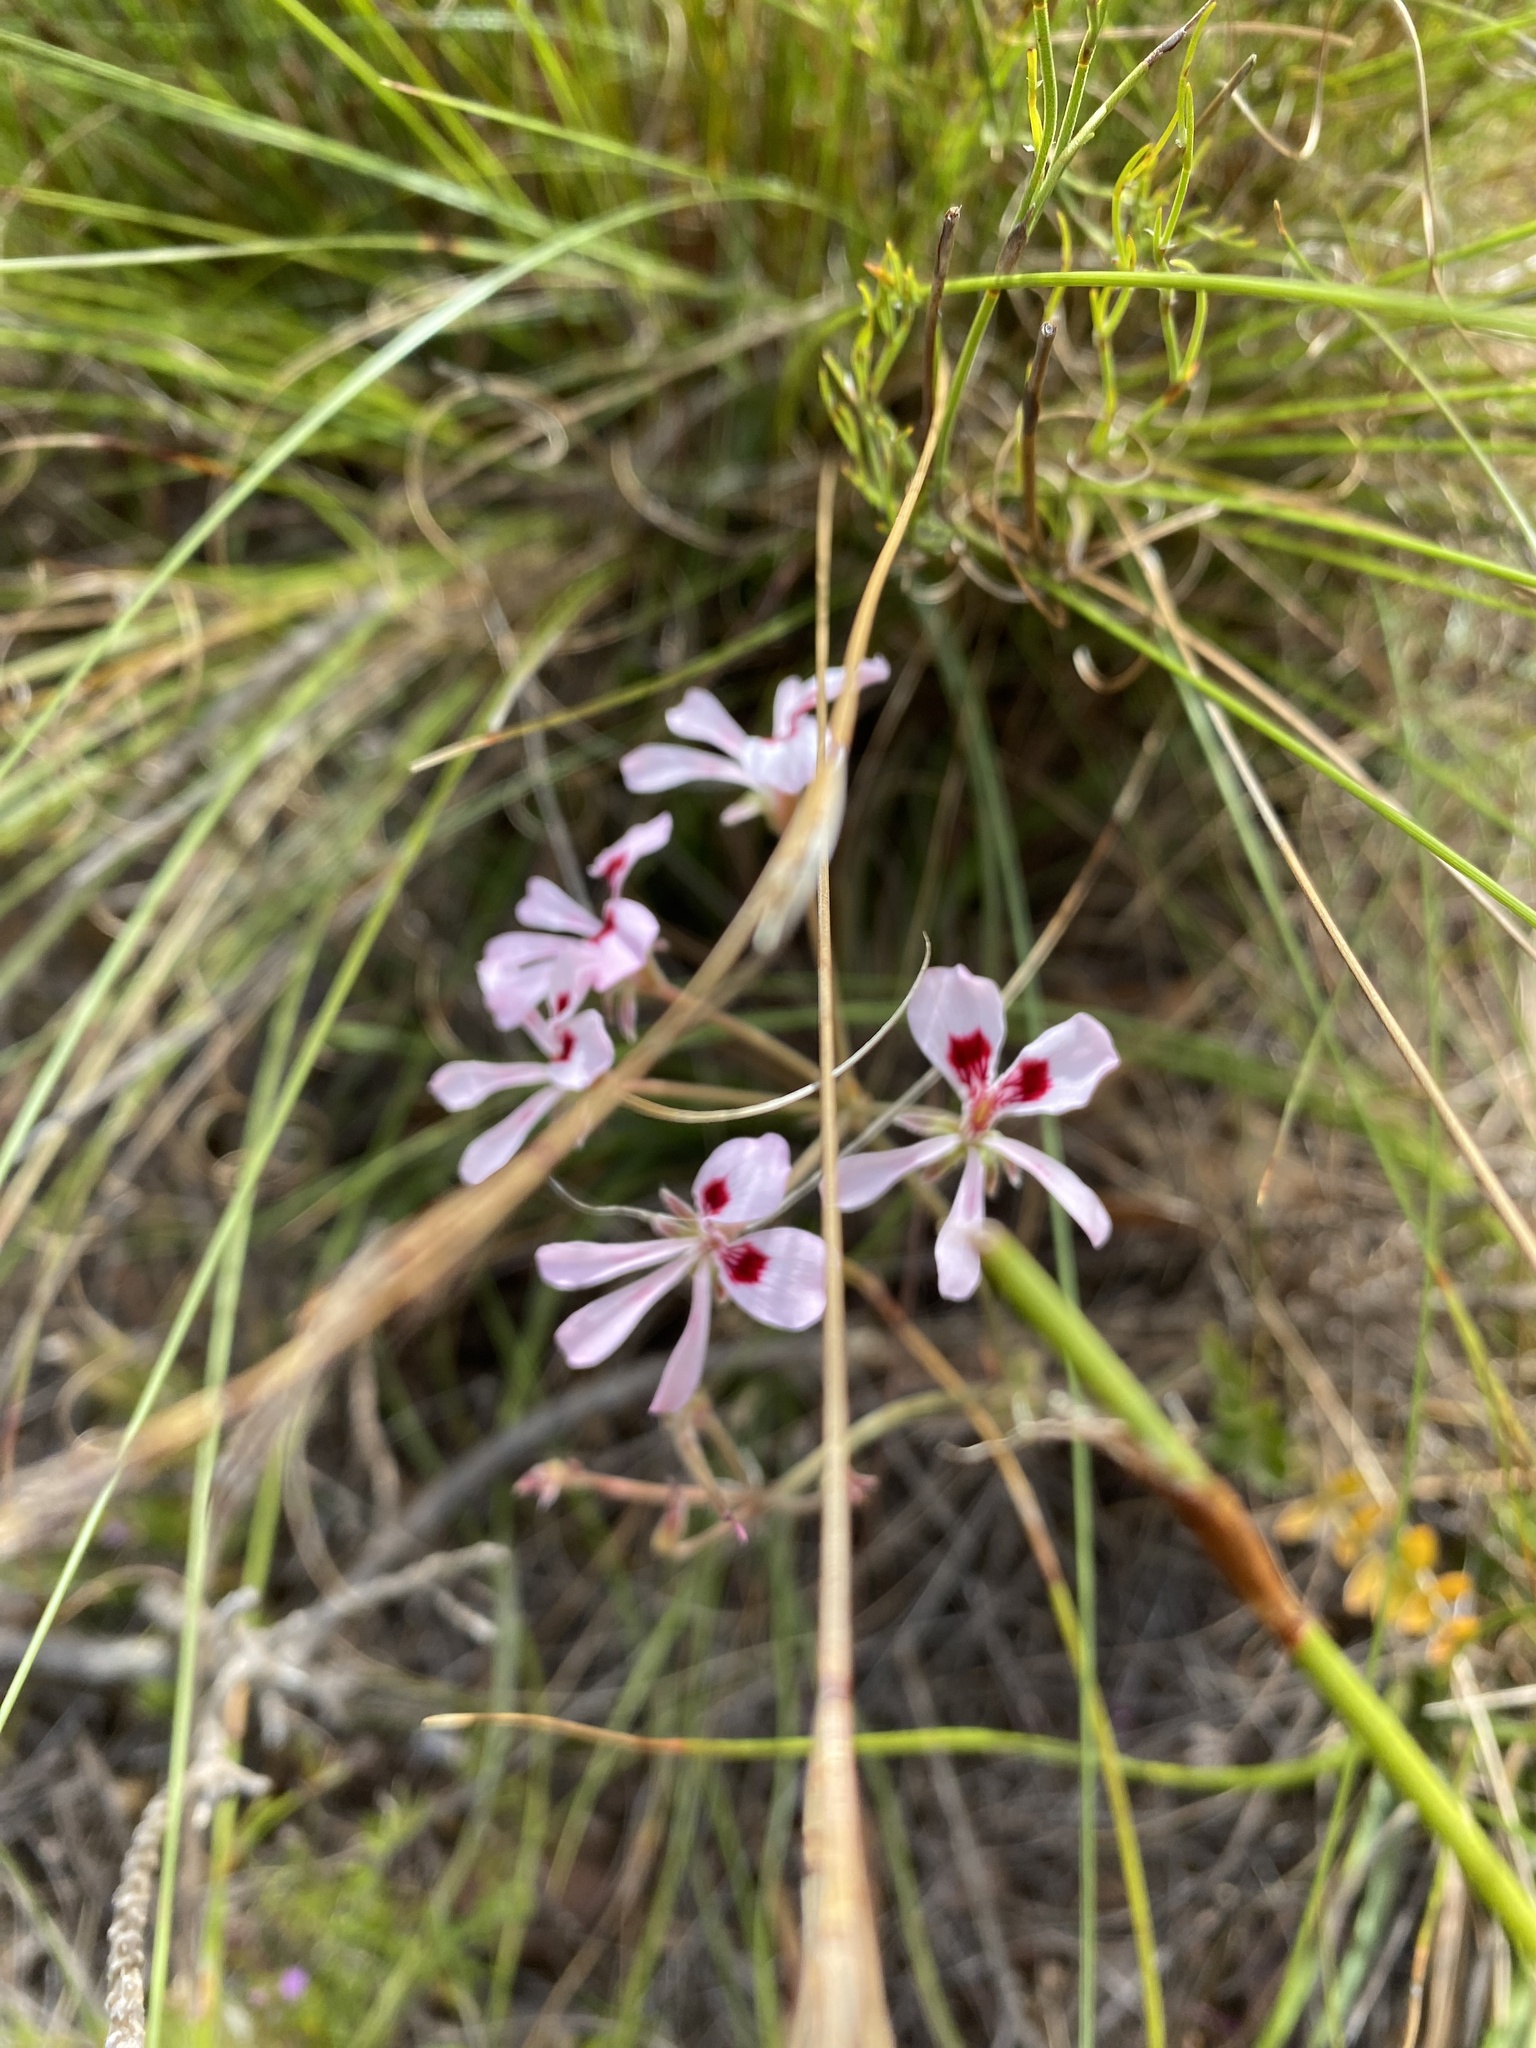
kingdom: Plantae
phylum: Tracheophyta
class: Magnoliopsida
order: Geraniales
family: Geraniaceae
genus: Pelargonium
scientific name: Pelargonium pinnatum
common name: Pinnated pelargonium
